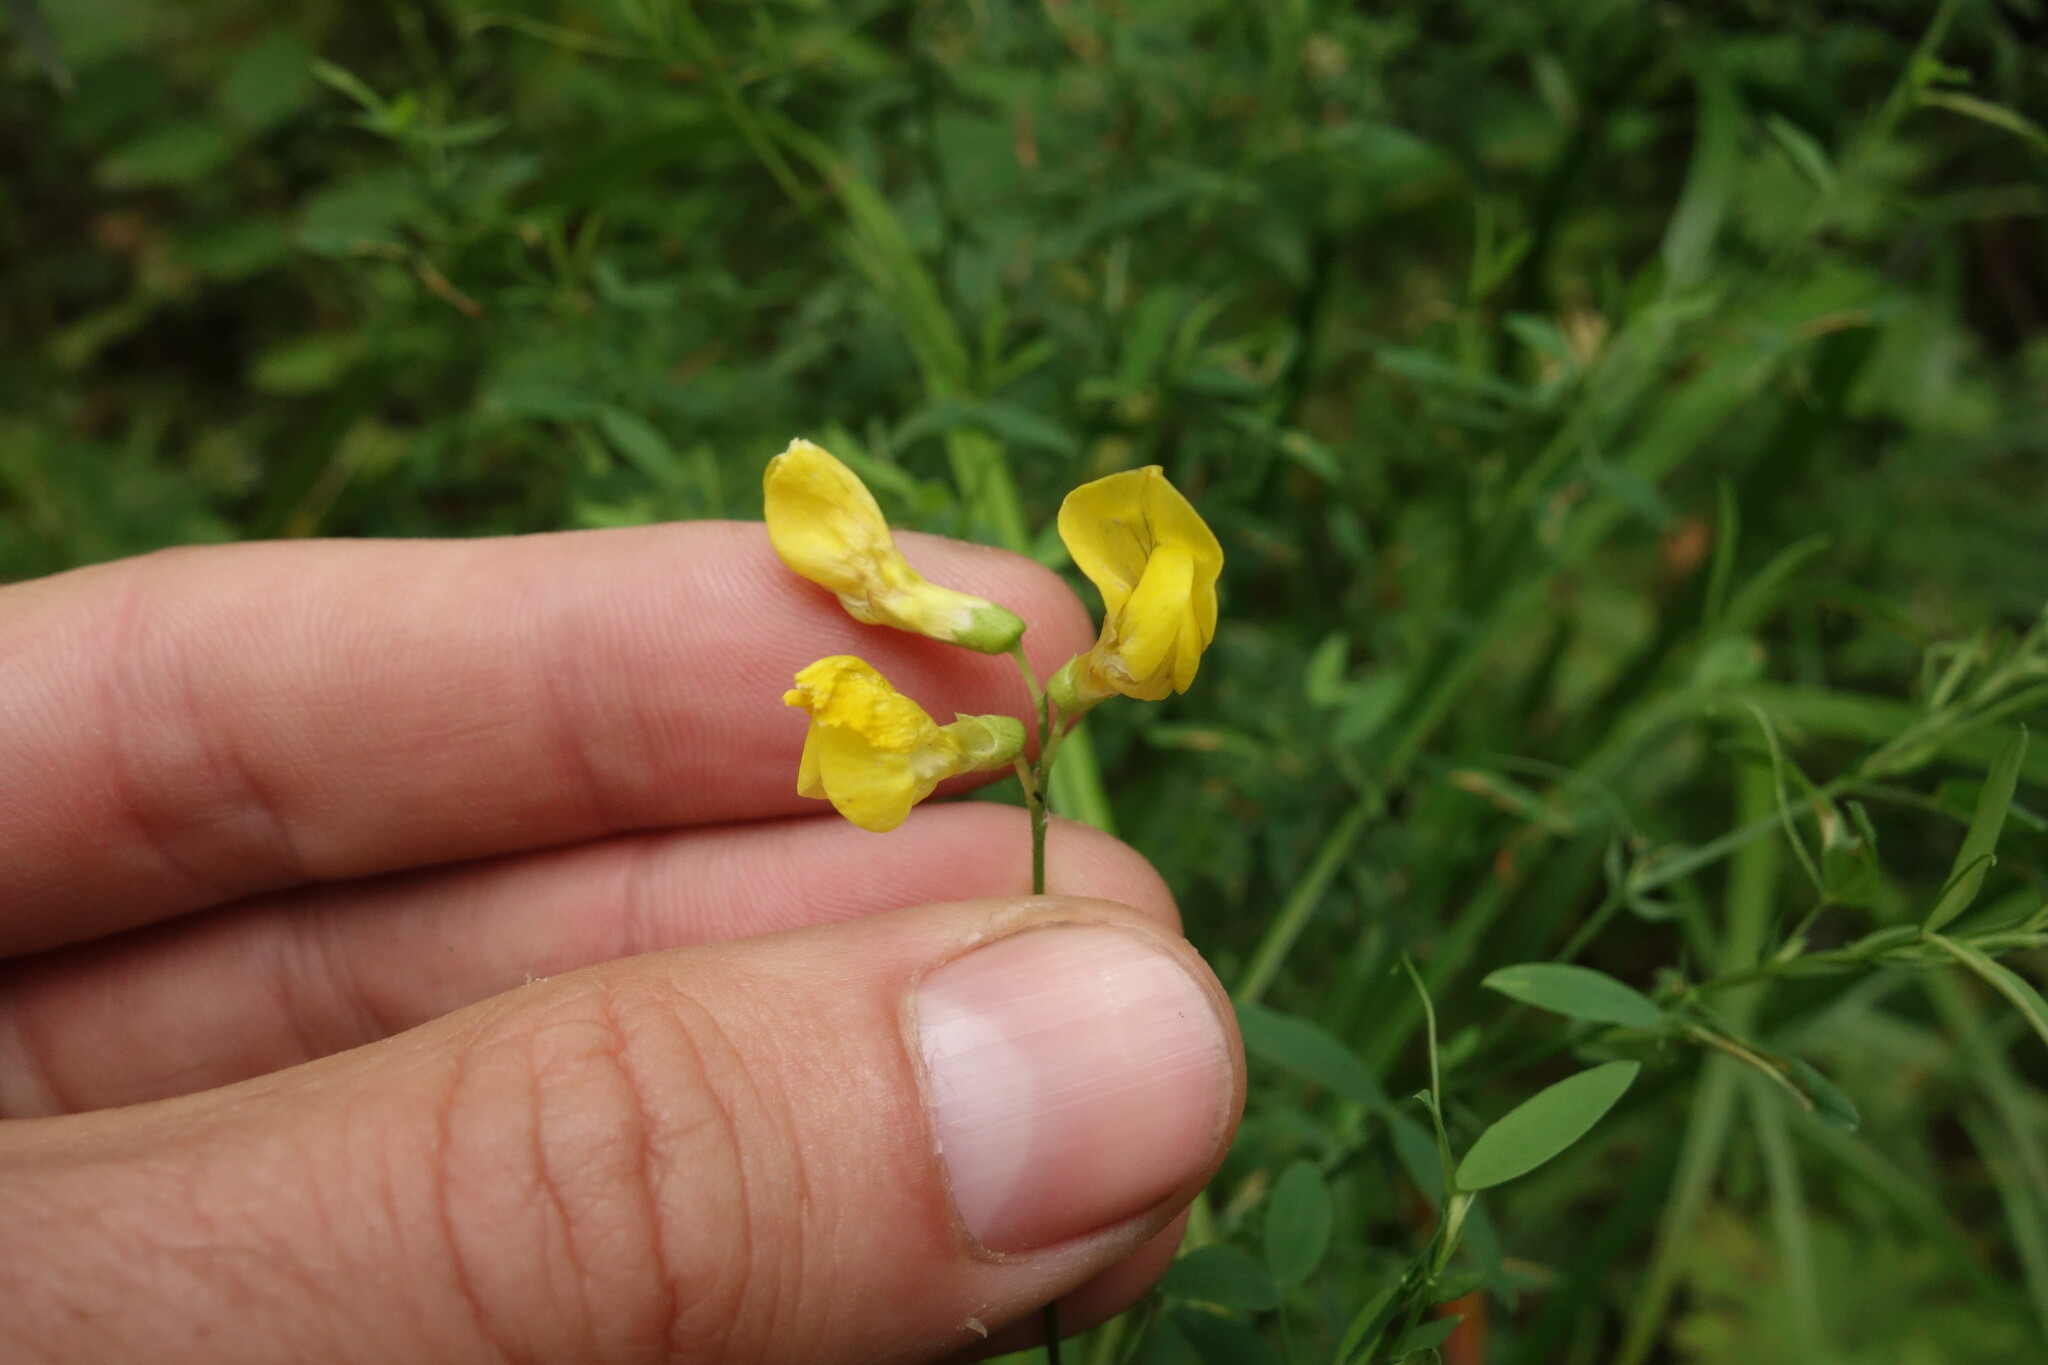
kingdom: Plantae
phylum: Tracheophyta
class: Magnoliopsida
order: Fabales
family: Fabaceae
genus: Lathyrus
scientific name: Lathyrus pratensis
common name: Meadow vetchling
